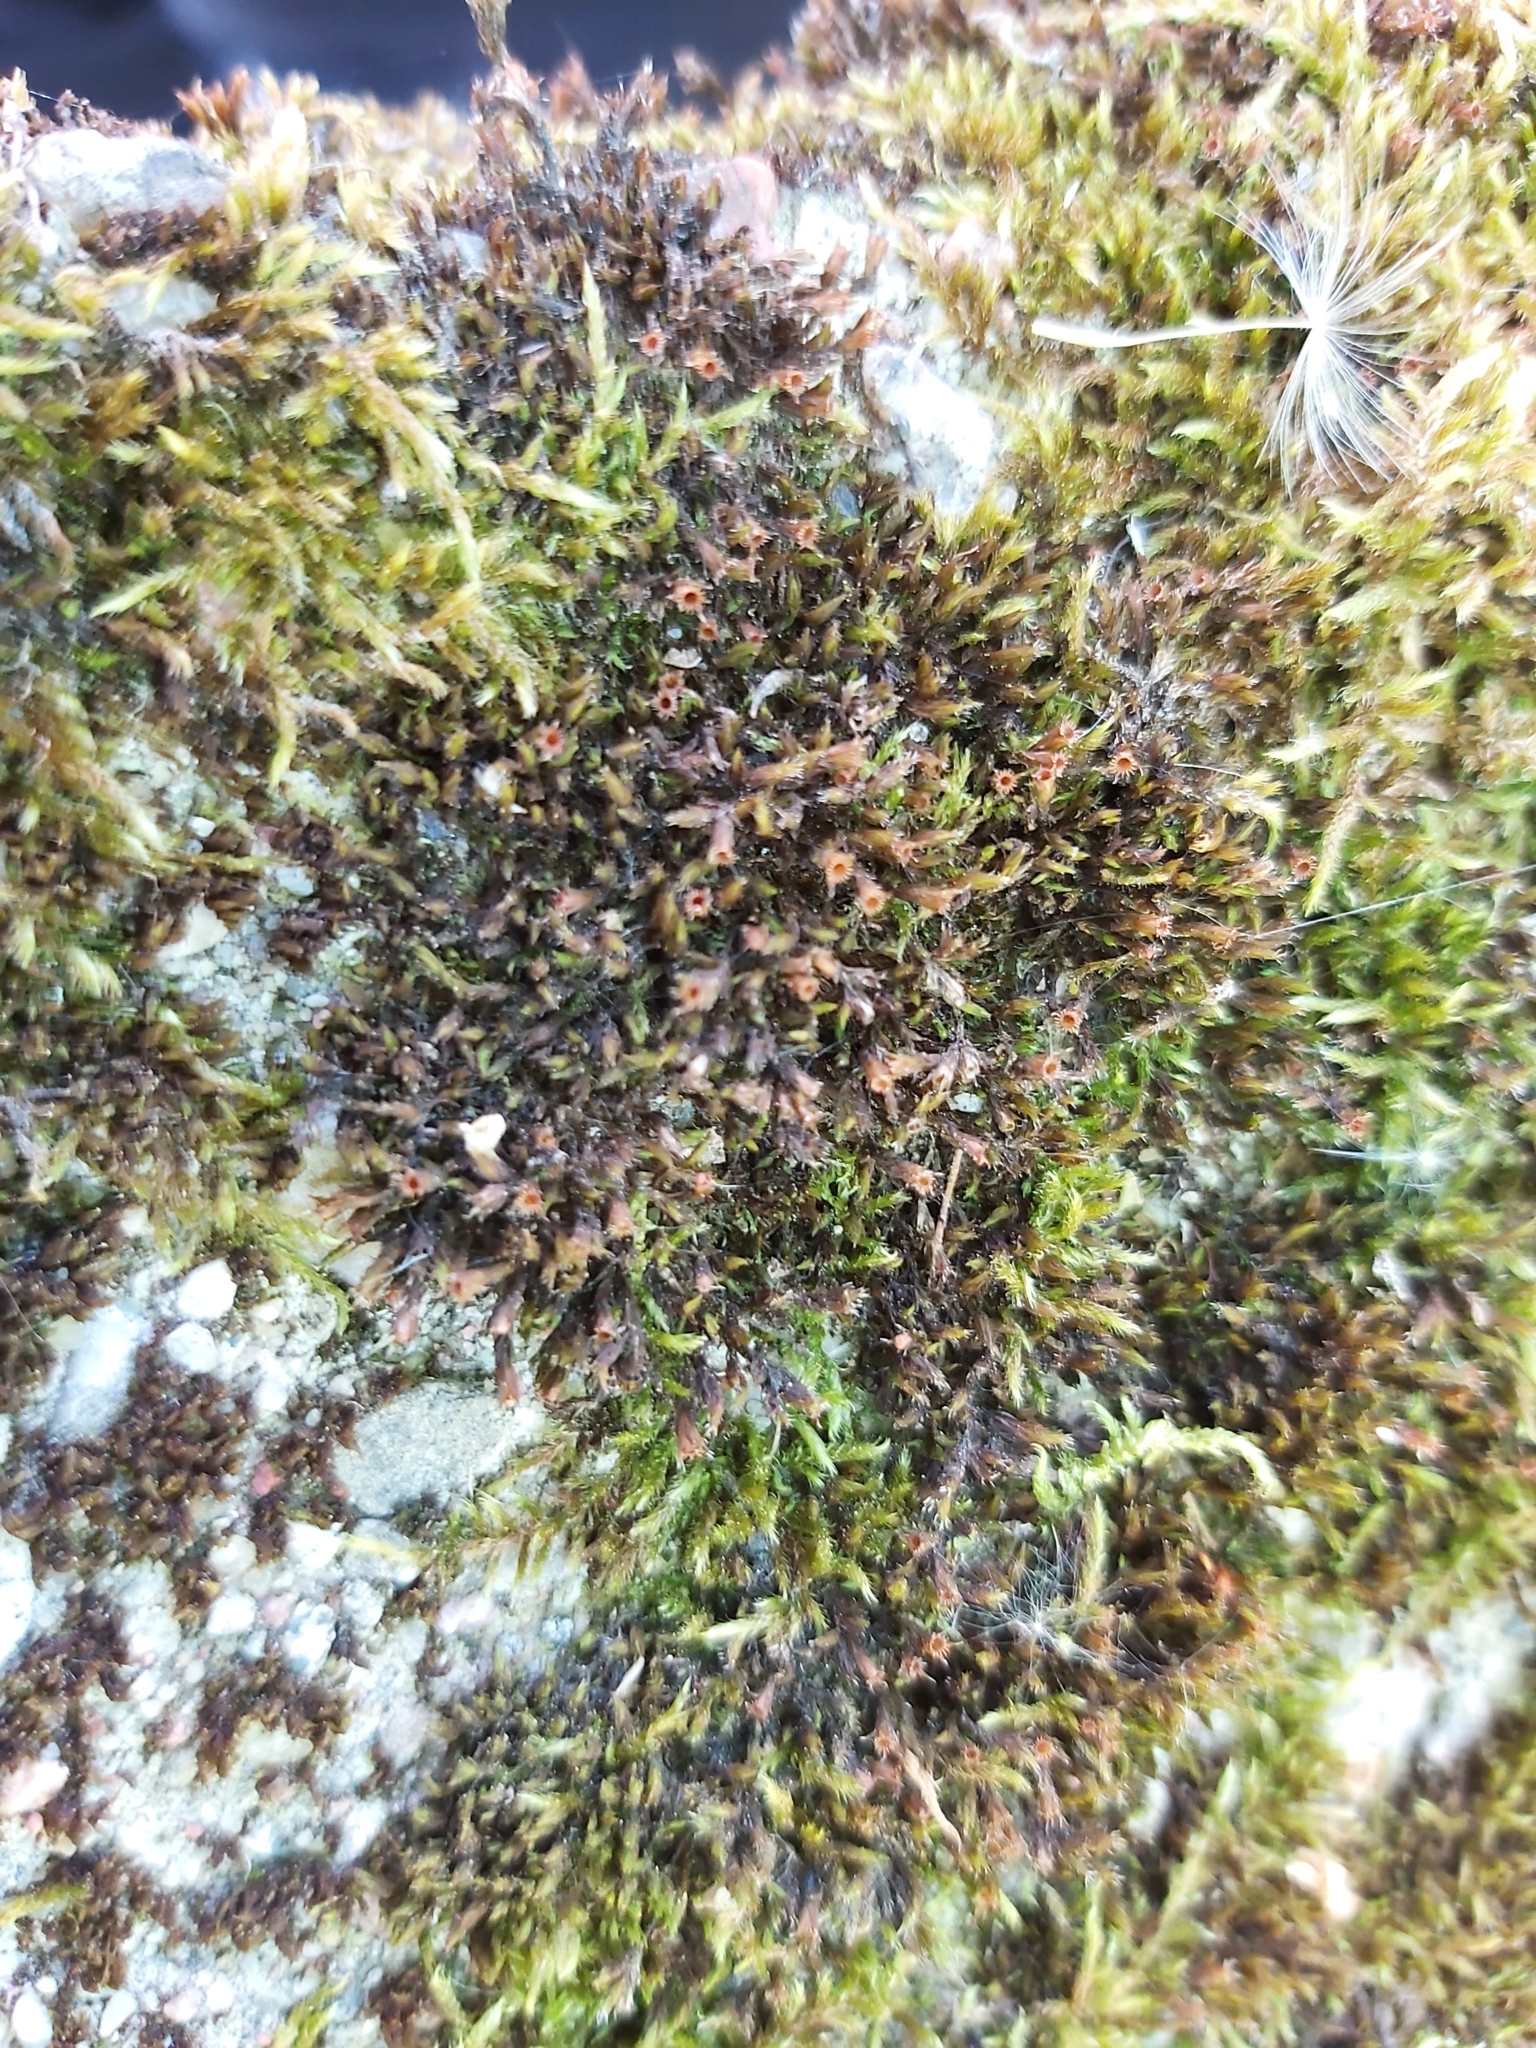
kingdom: Plantae
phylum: Bryophyta
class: Bryopsida
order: Grimmiales
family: Grimmiaceae
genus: Schistidium
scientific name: Schistidium apocarpum
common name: Radiate bloom moss
